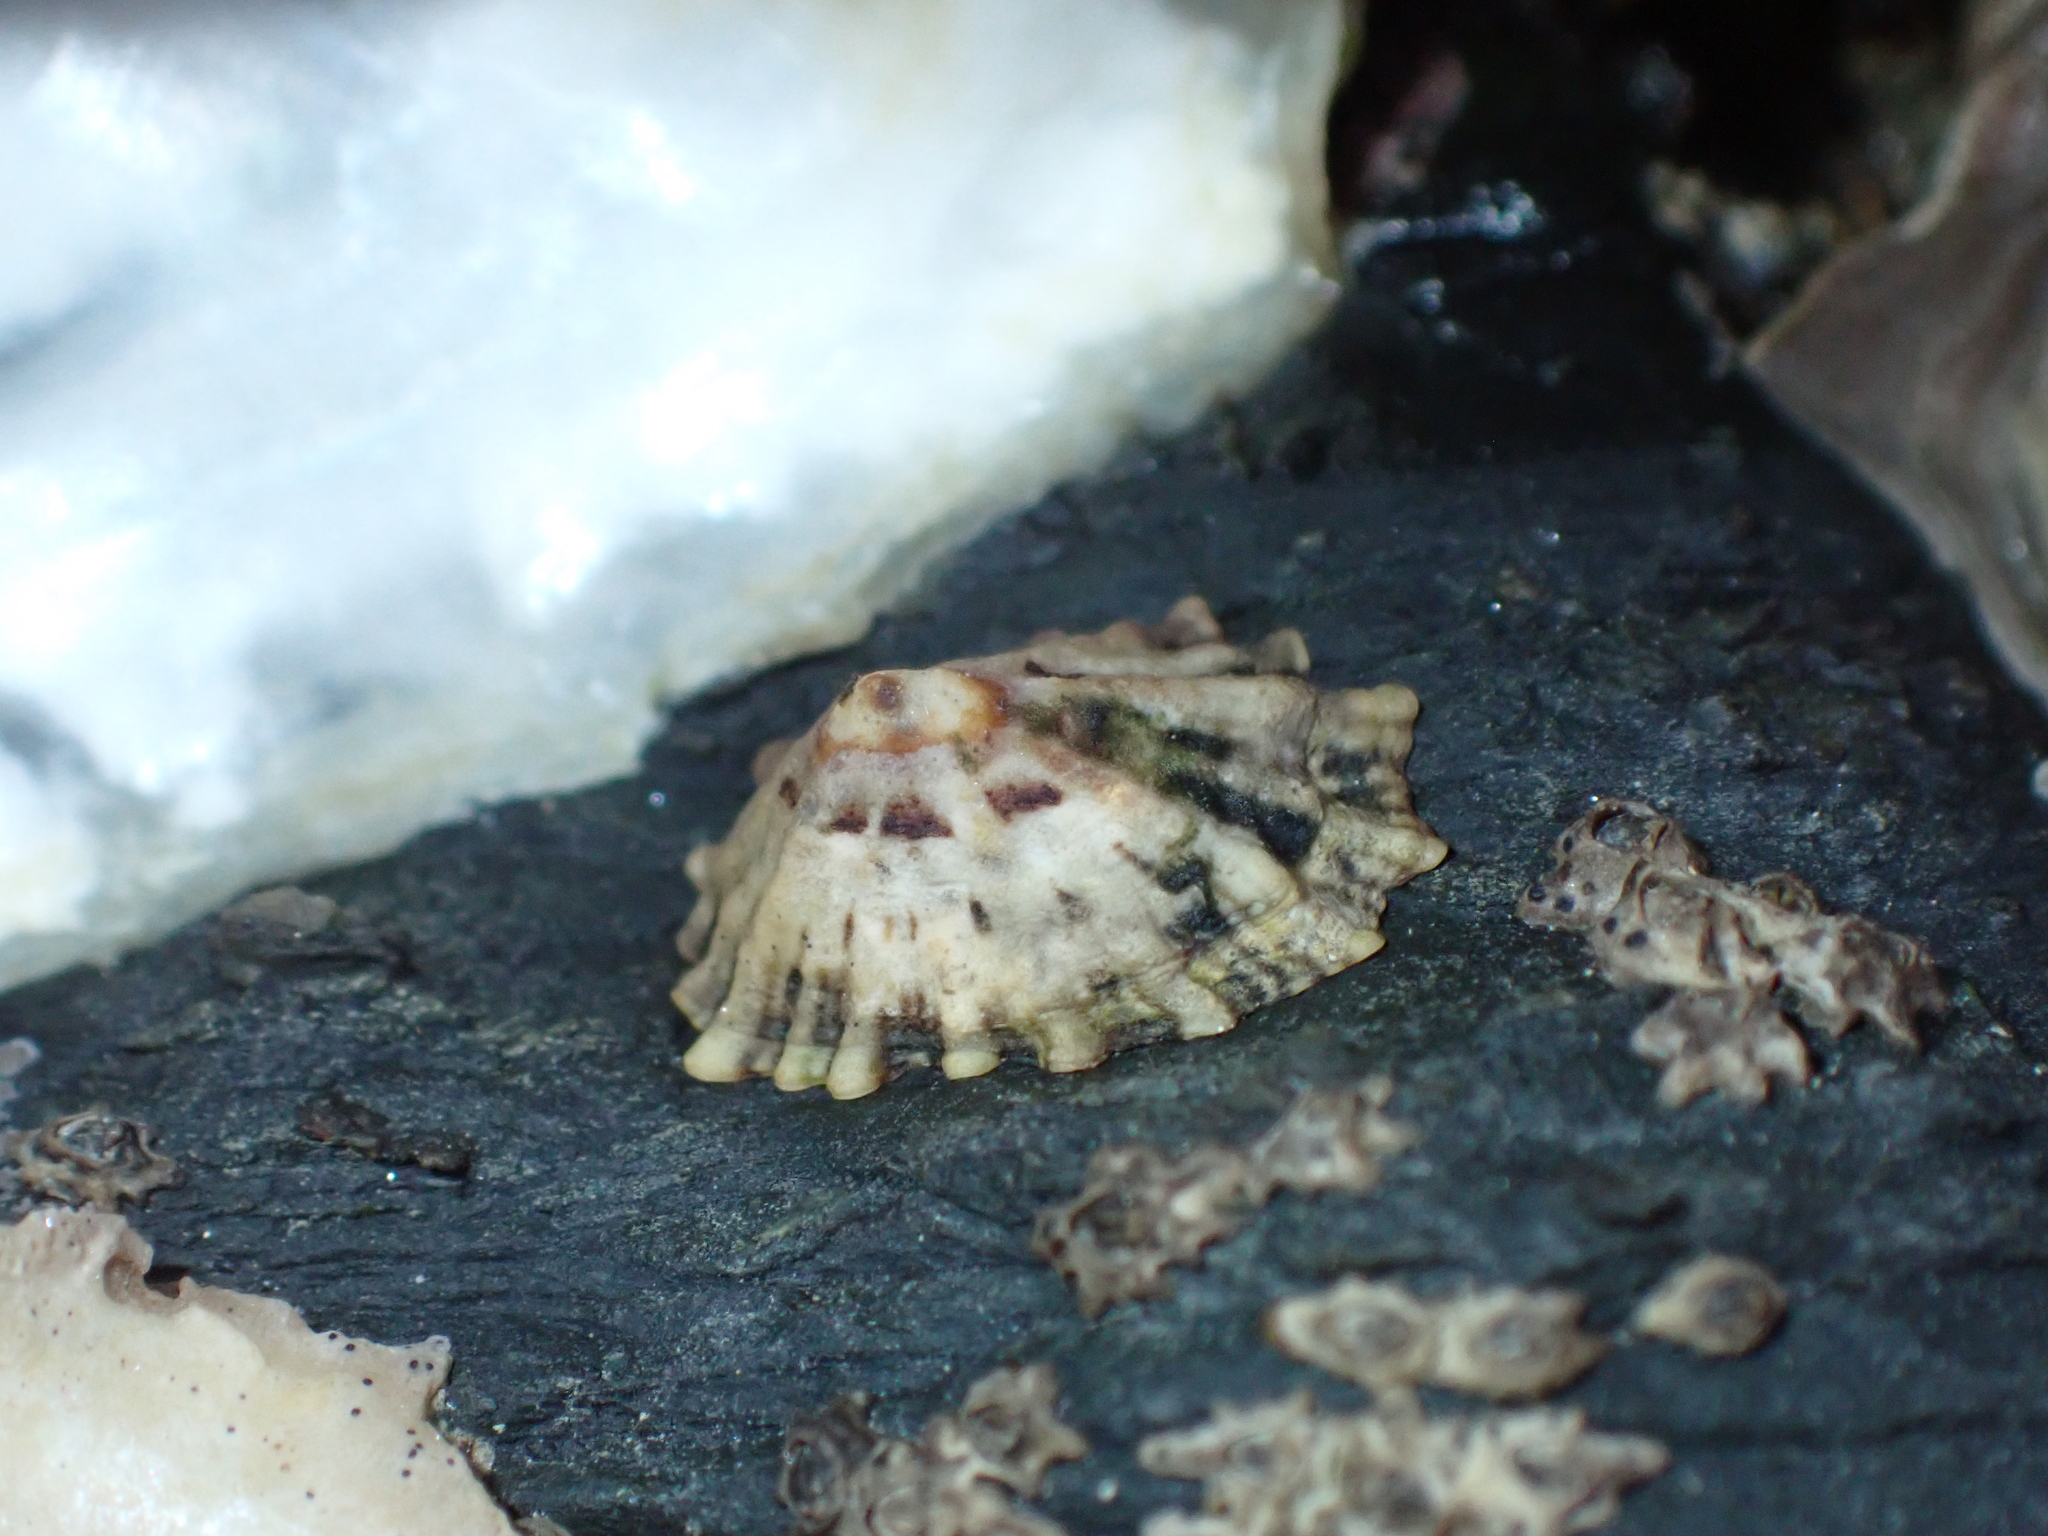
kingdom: Animalia
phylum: Mollusca
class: Gastropoda
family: Lottiidae
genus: Patelloida
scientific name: Patelloida corticata
